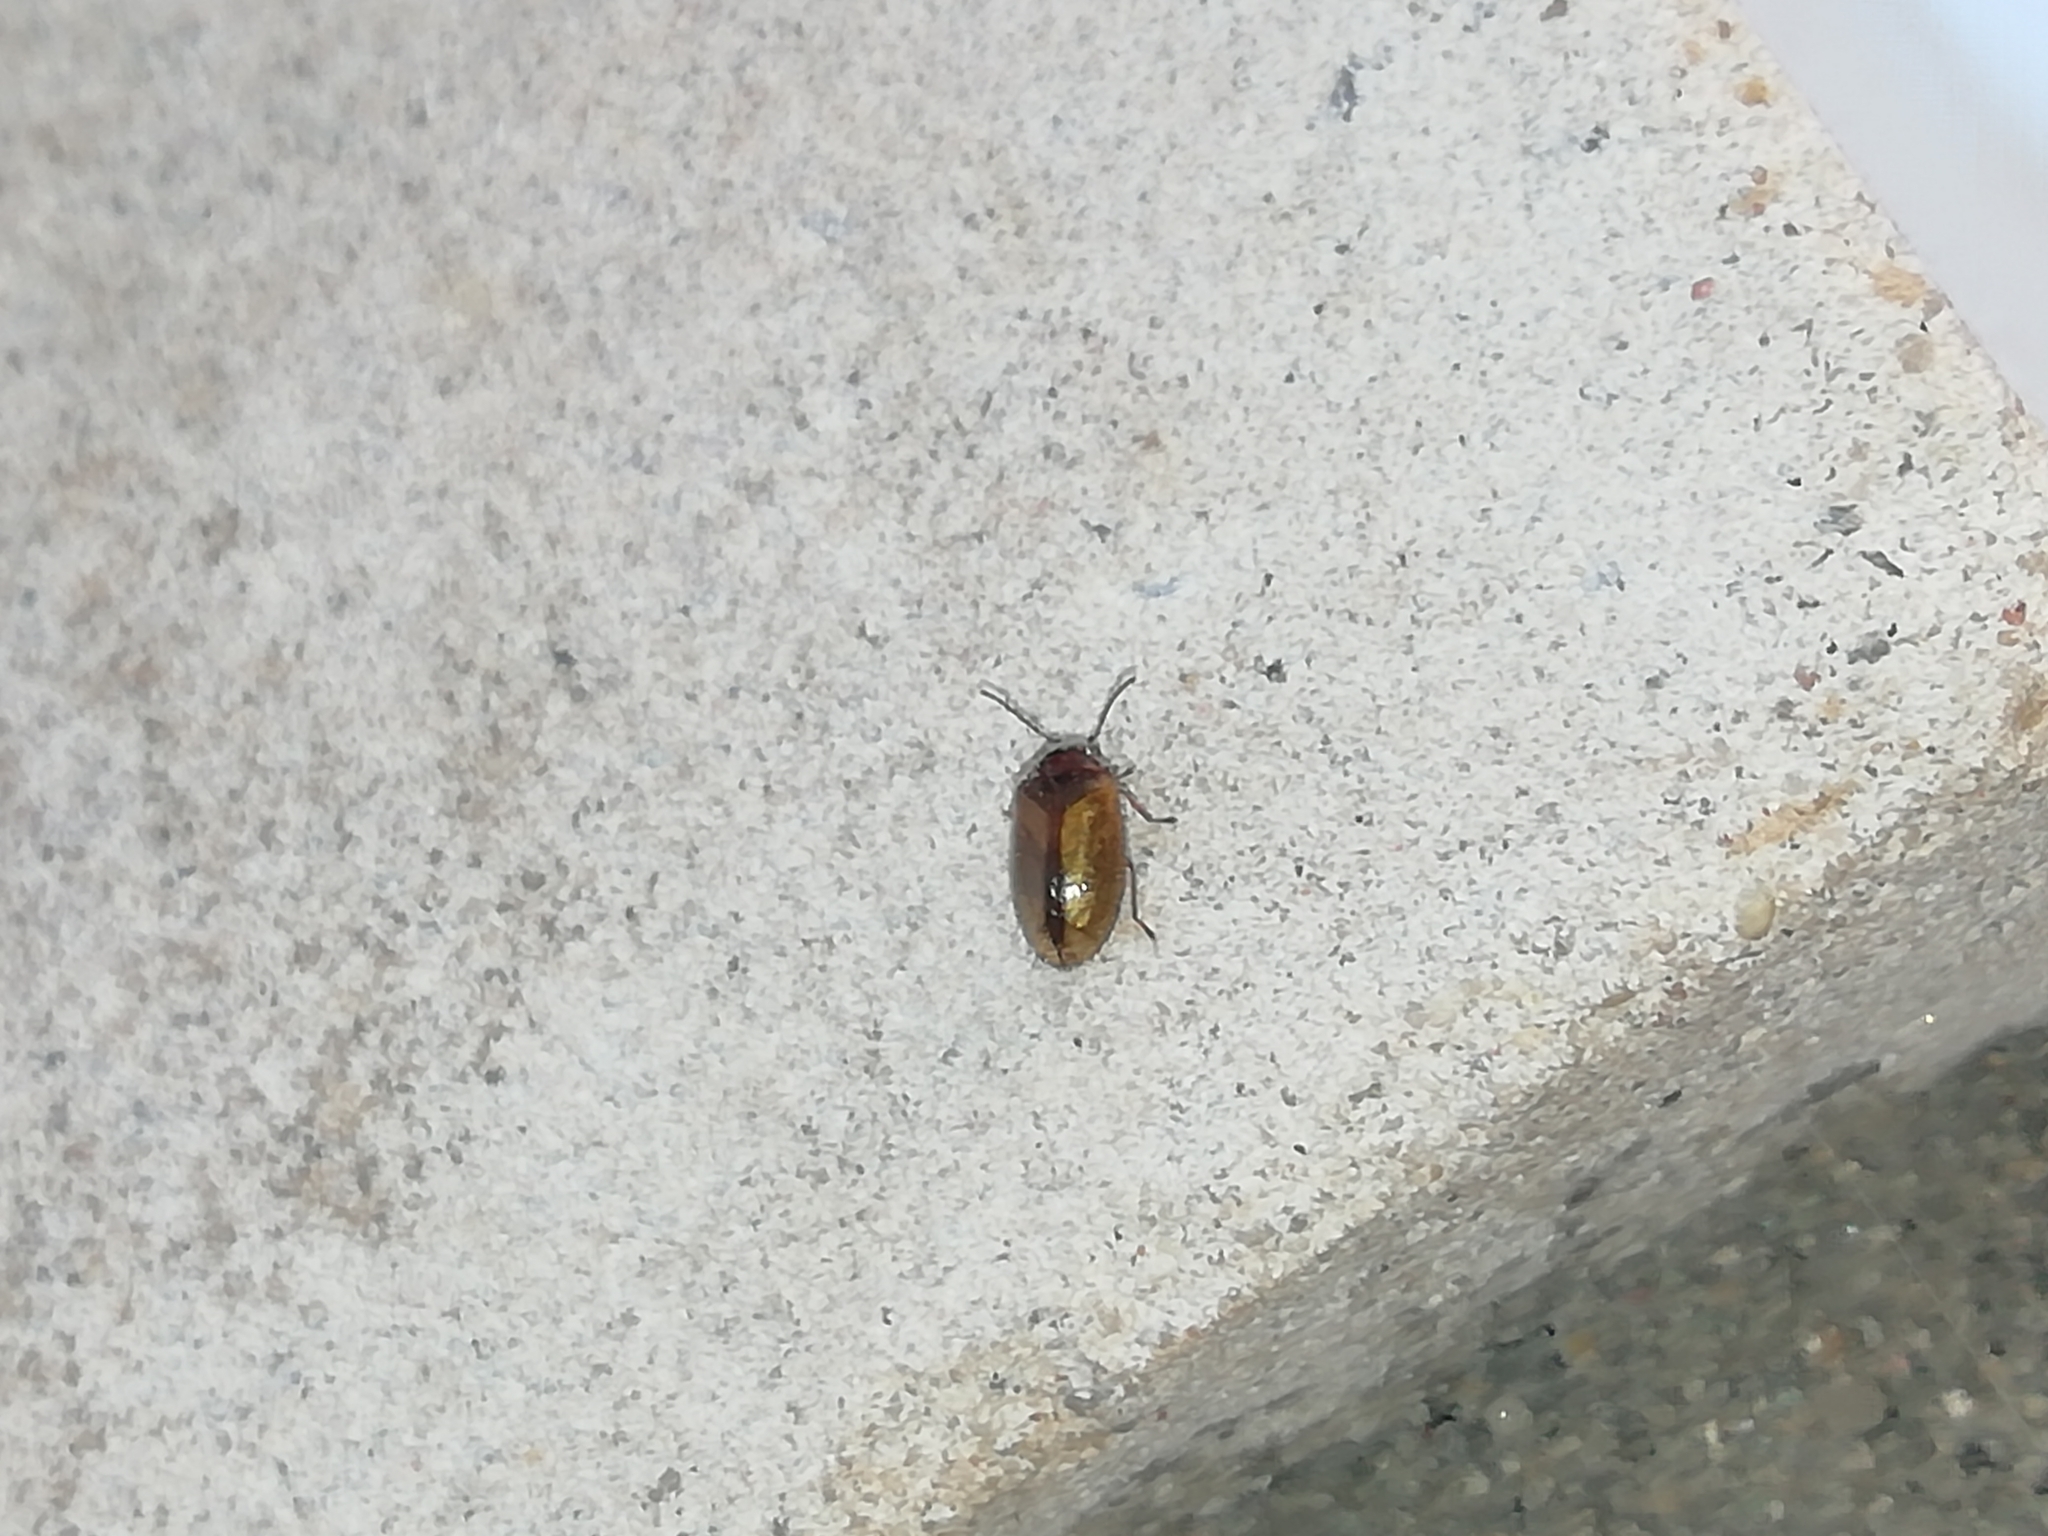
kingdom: Animalia
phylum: Arthropoda
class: Insecta
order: Coleoptera
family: Scirtidae
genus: Cyphon
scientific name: Cyphon variabilis
